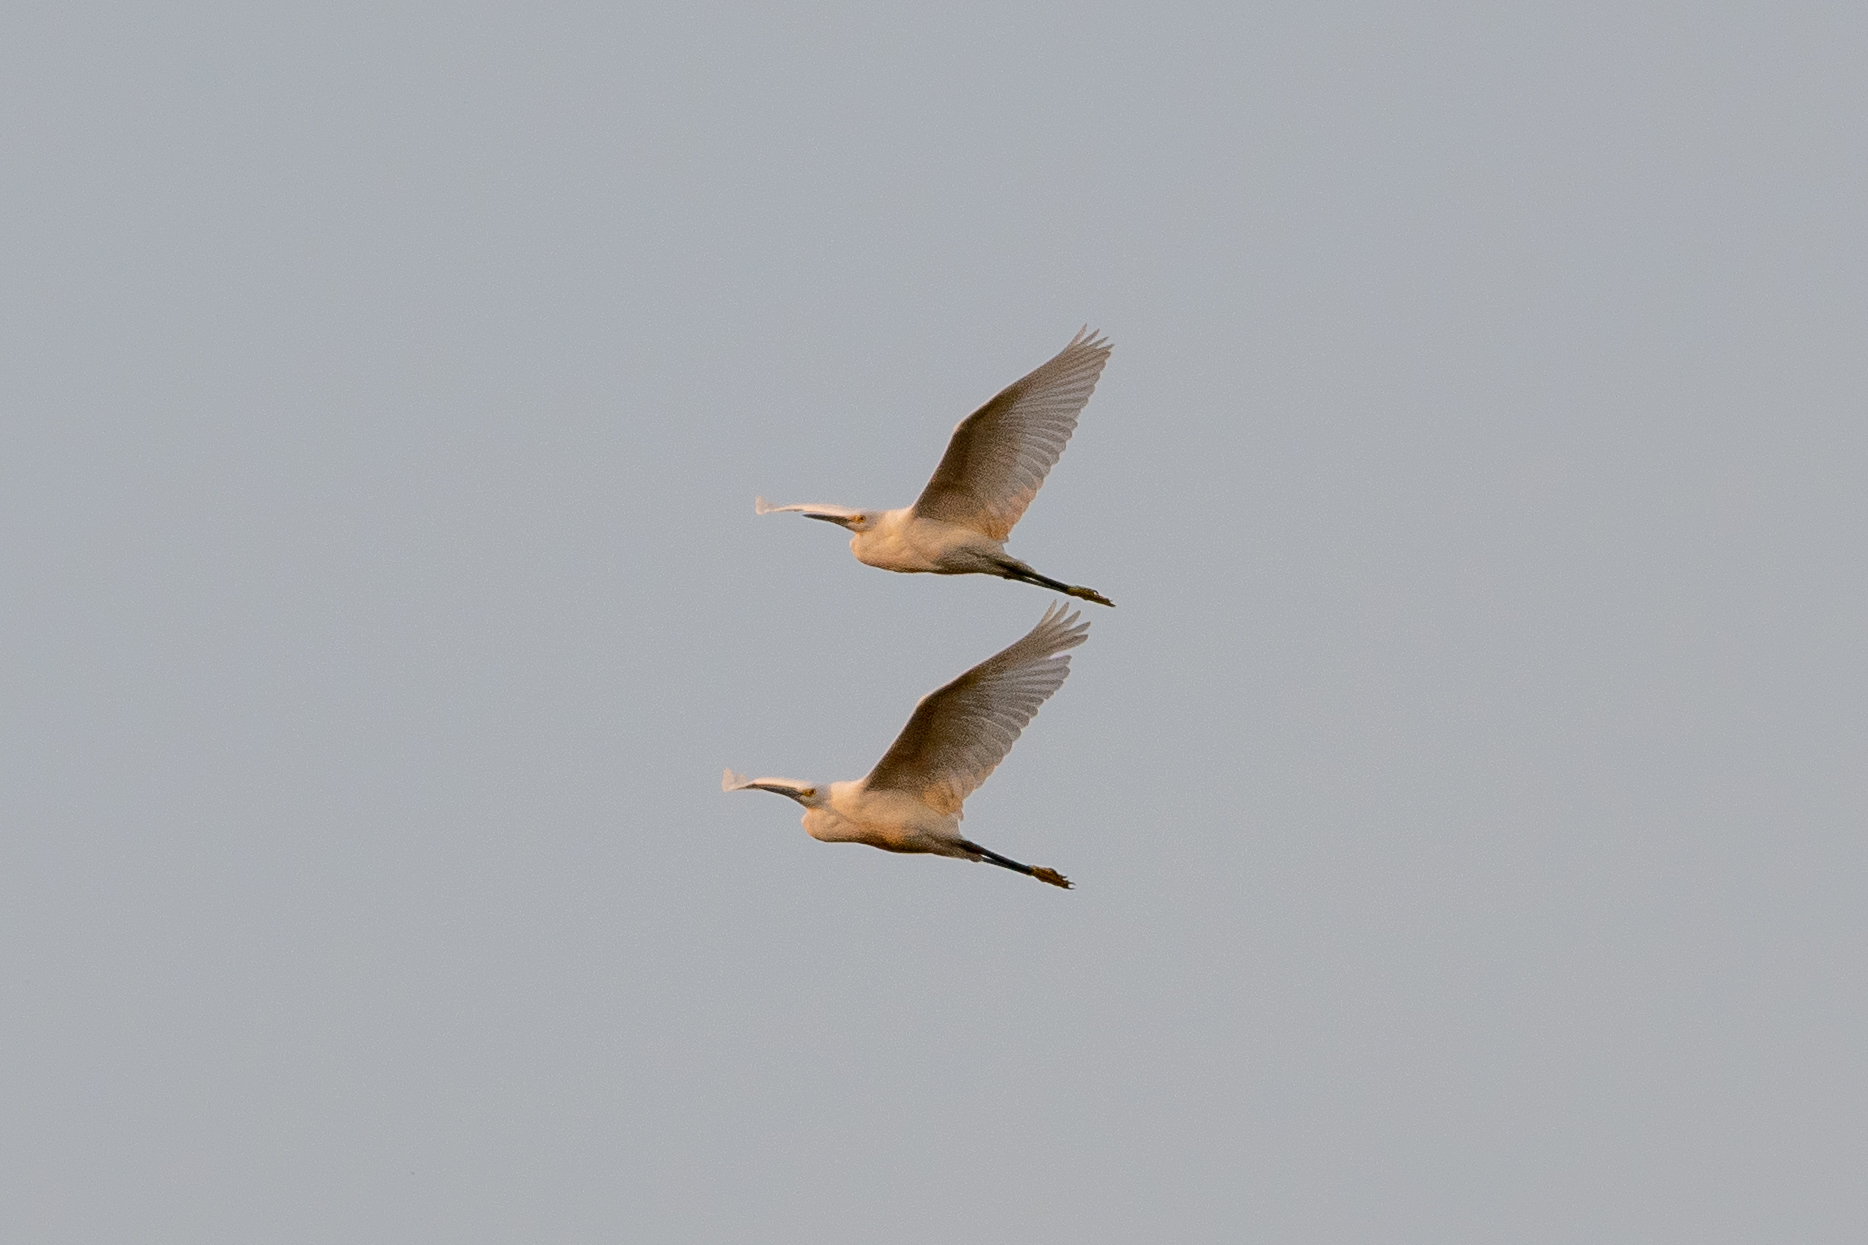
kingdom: Animalia
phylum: Chordata
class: Aves
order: Pelecaniformes
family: Ardeidae
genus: Egretta
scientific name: Egretta thula
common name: Snowy egret
